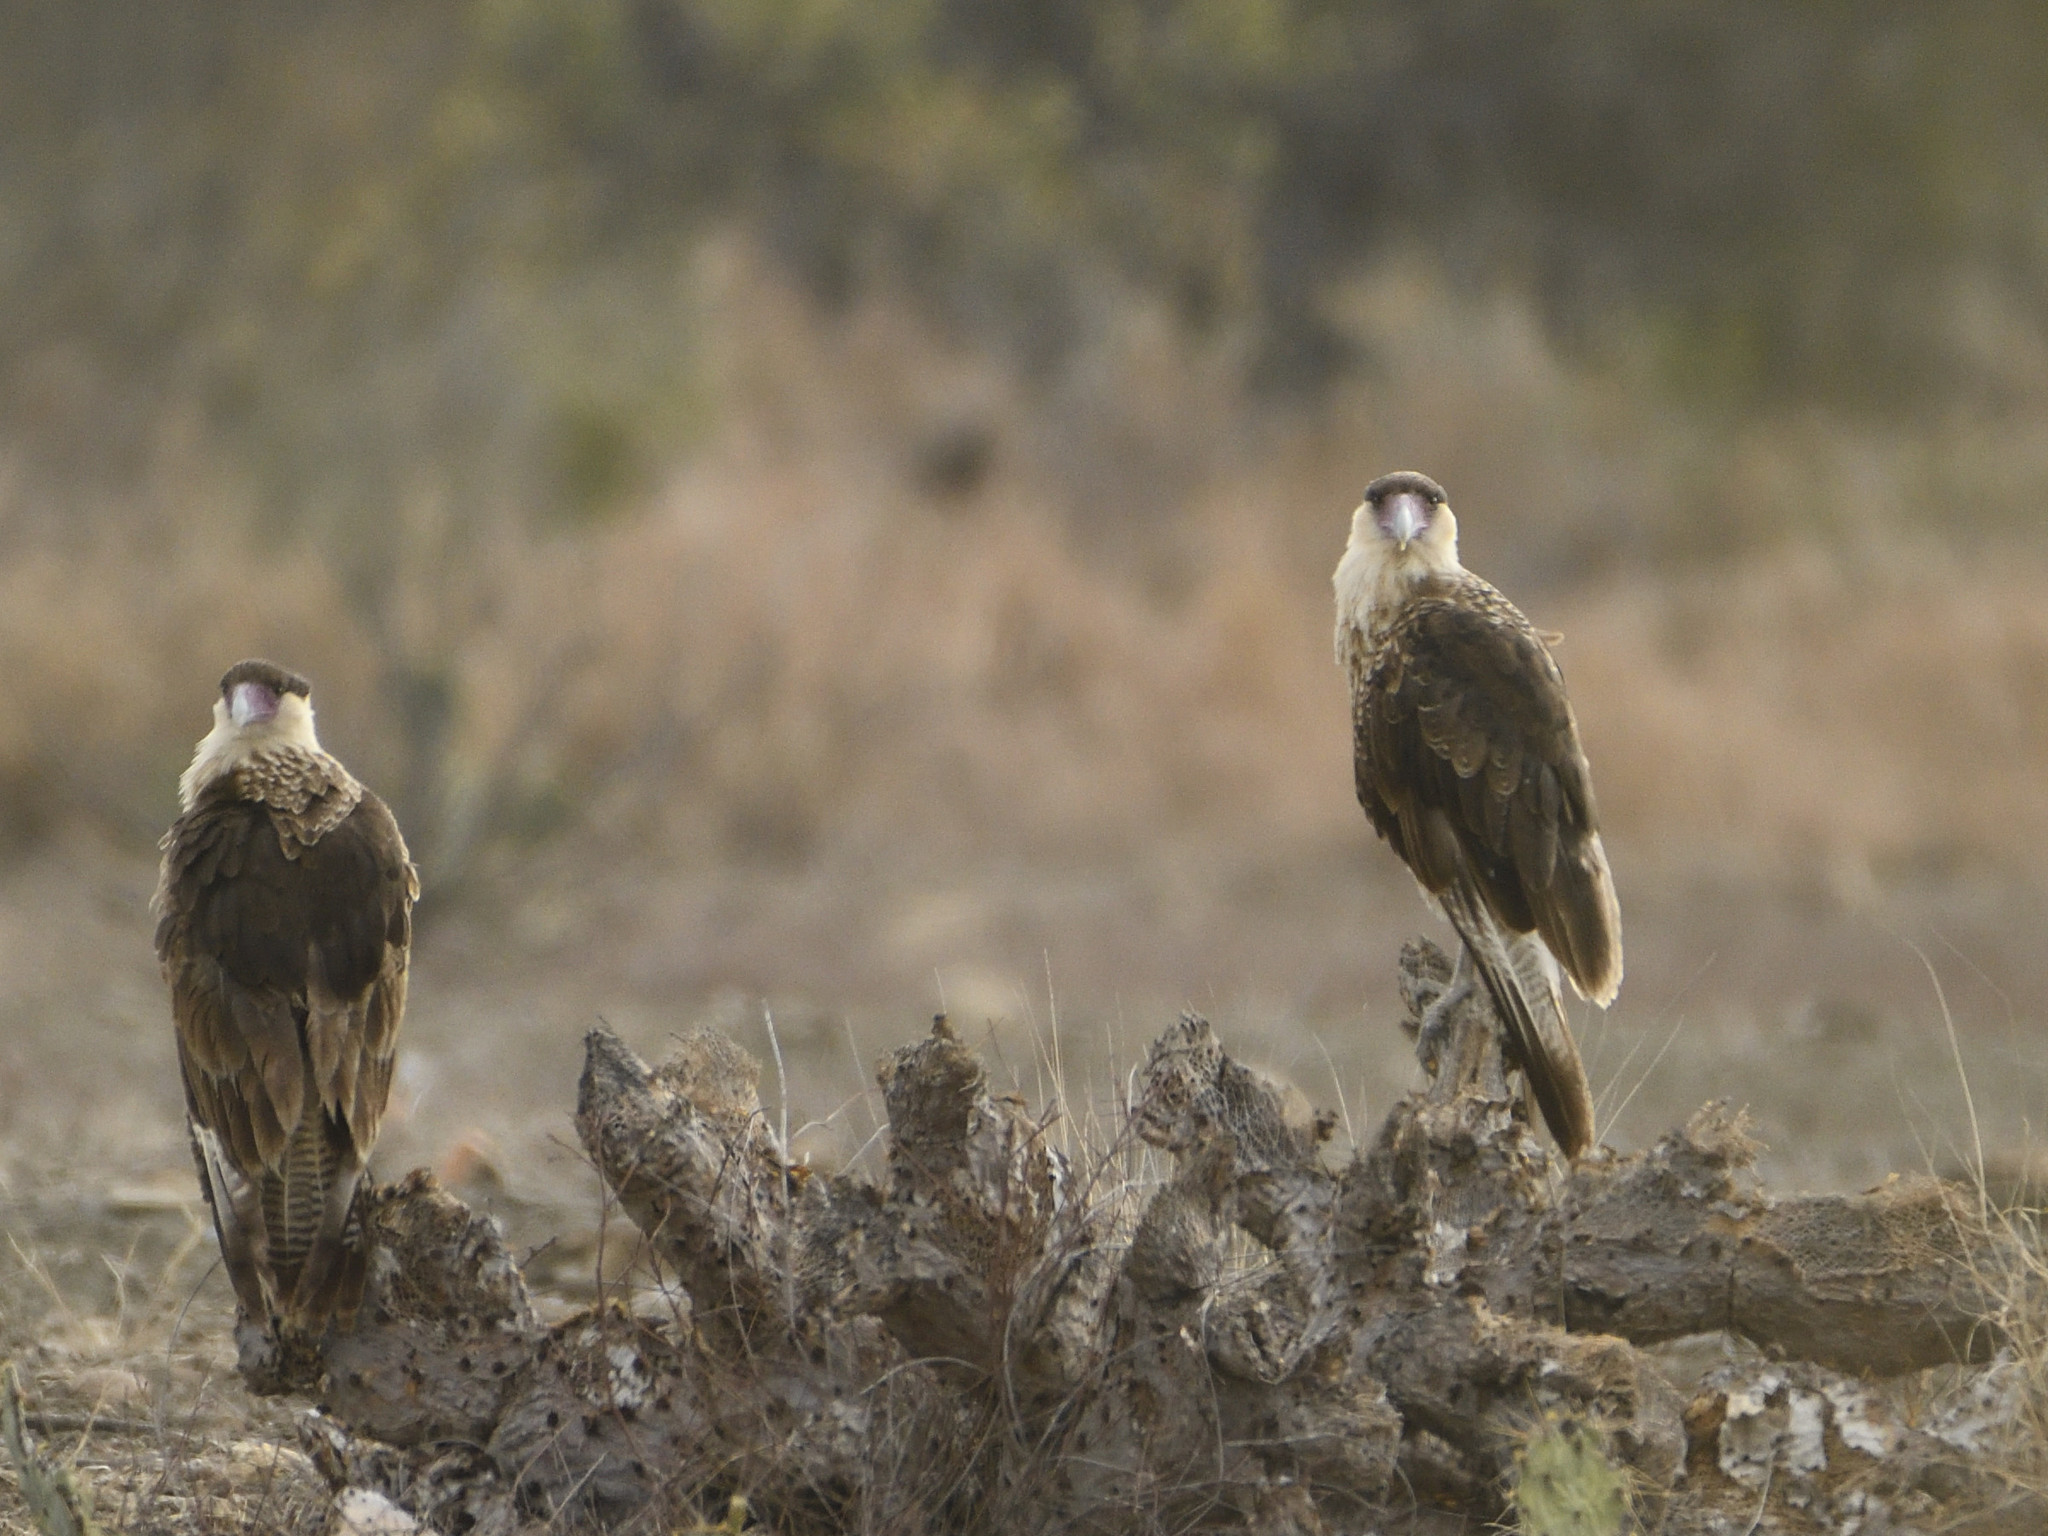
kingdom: Animalia
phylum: Chordata
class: Aves
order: Falconiformes
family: Falconidae
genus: Caracara
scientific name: Caracara plancus
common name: Southern caracara
